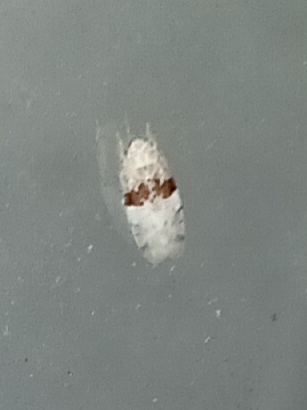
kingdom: Animalia
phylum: Arthropoda
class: Insecta
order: Hemiptera
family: Cicadellidae
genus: Hymetta
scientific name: Hymetta anthisma
